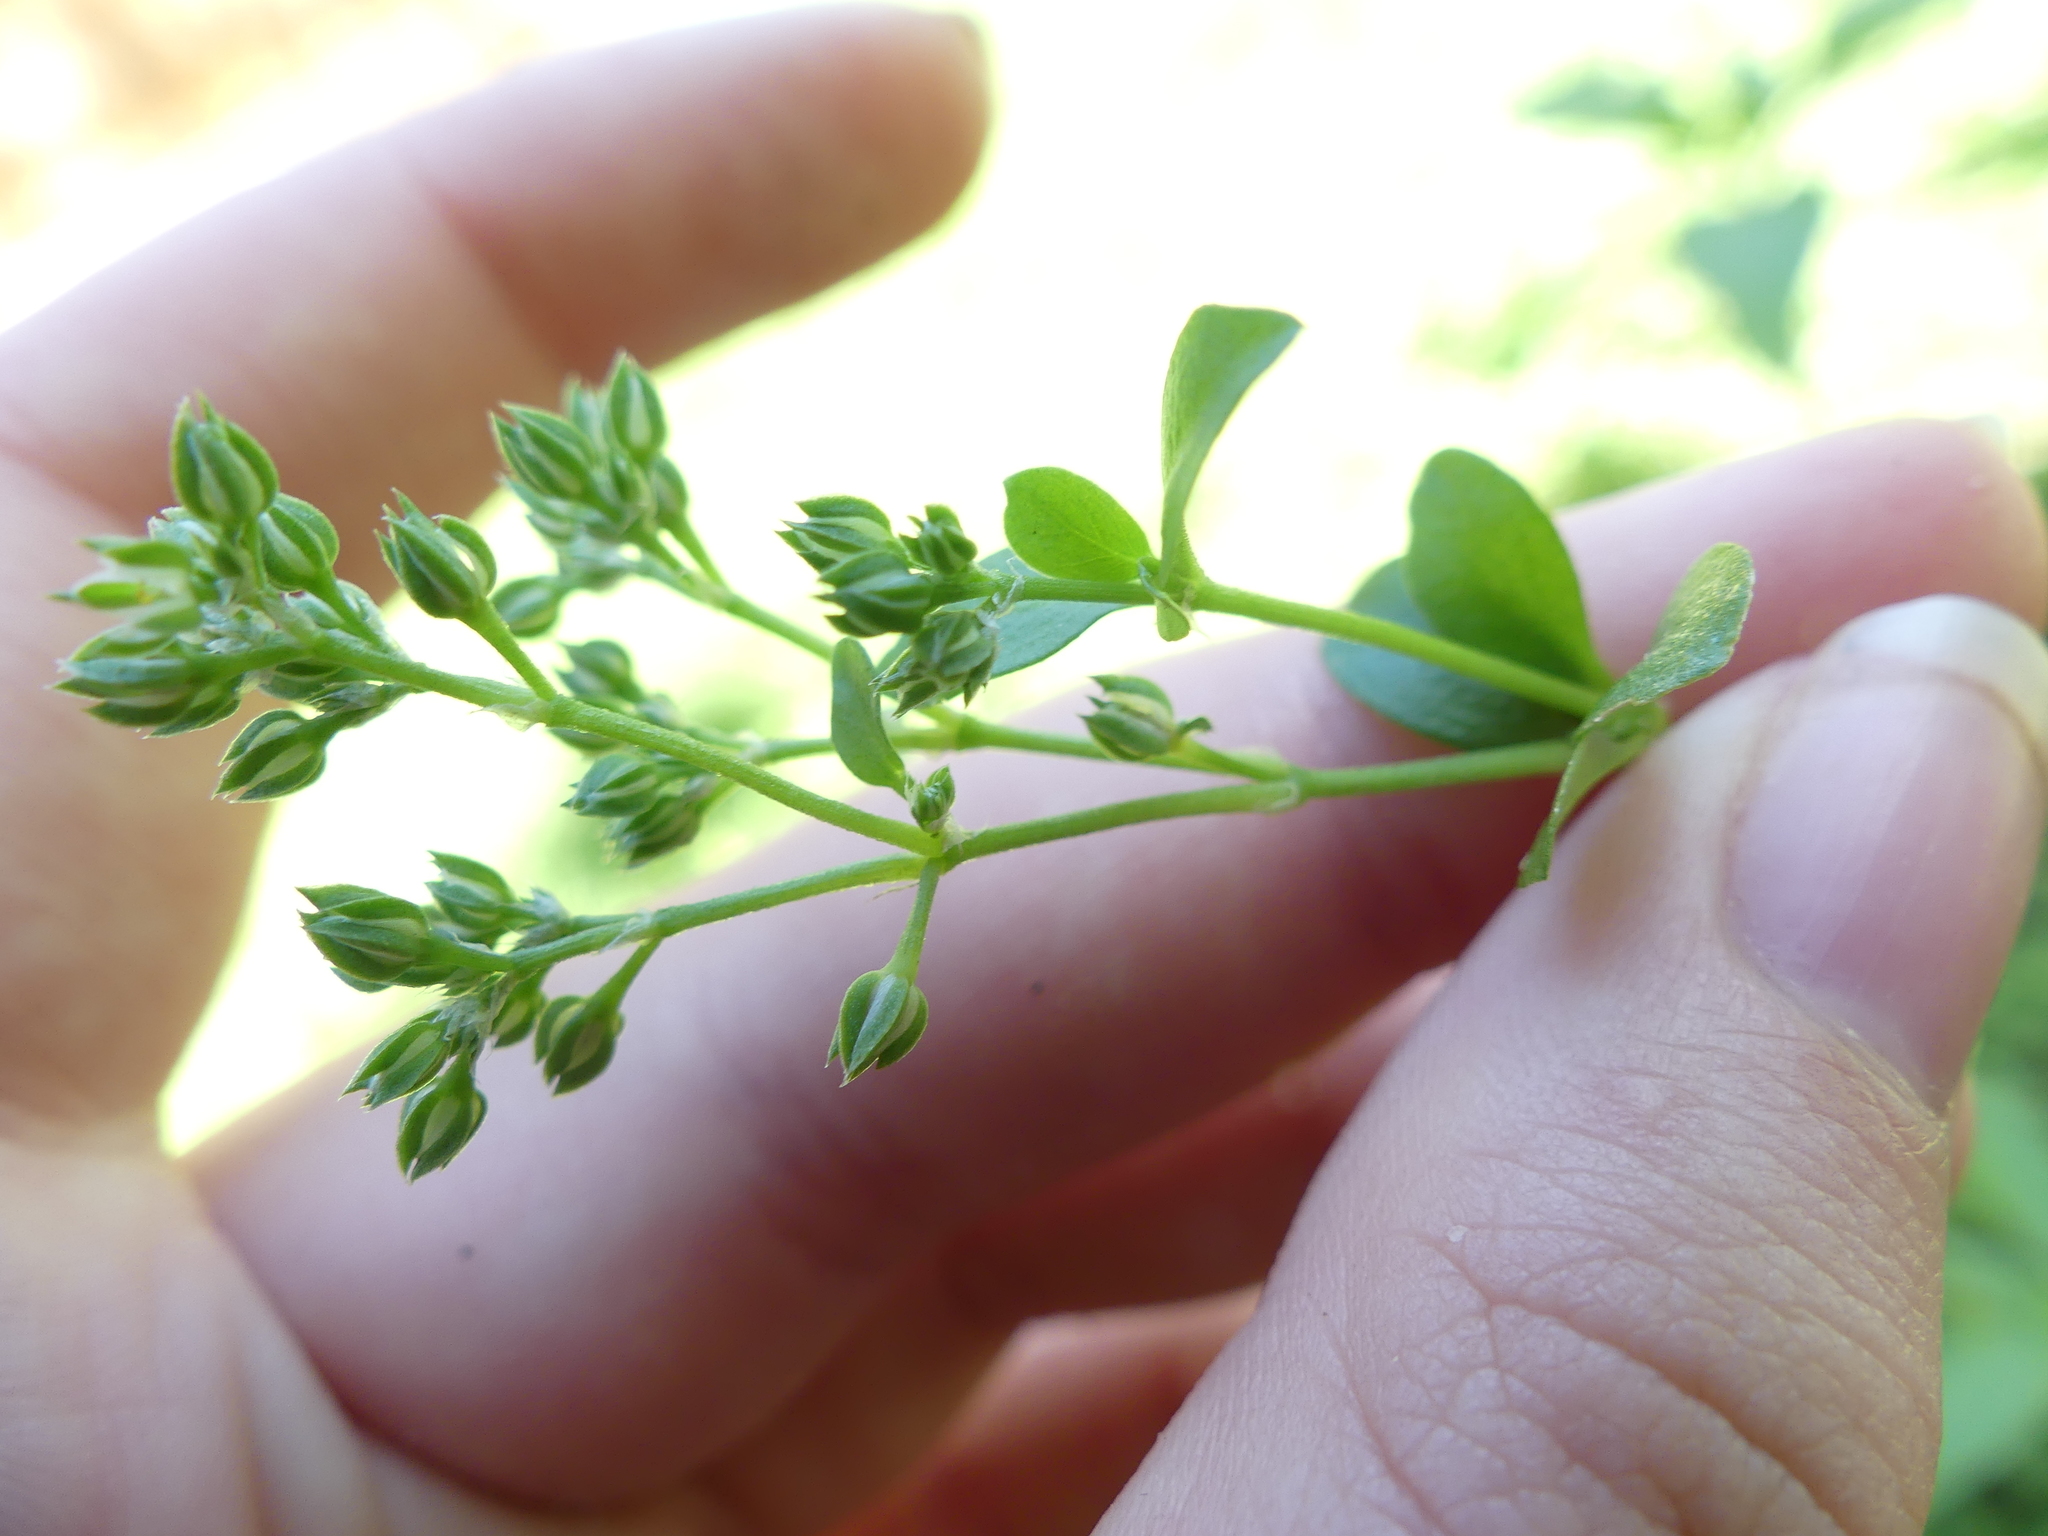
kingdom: Plantae
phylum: Tracheophyta
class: Magnoliopsida
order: Caryophyllales
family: Caryophyllaceae
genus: Polycarpon
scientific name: Polycarpon tetraphyllum
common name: Four-leaved all-seed
